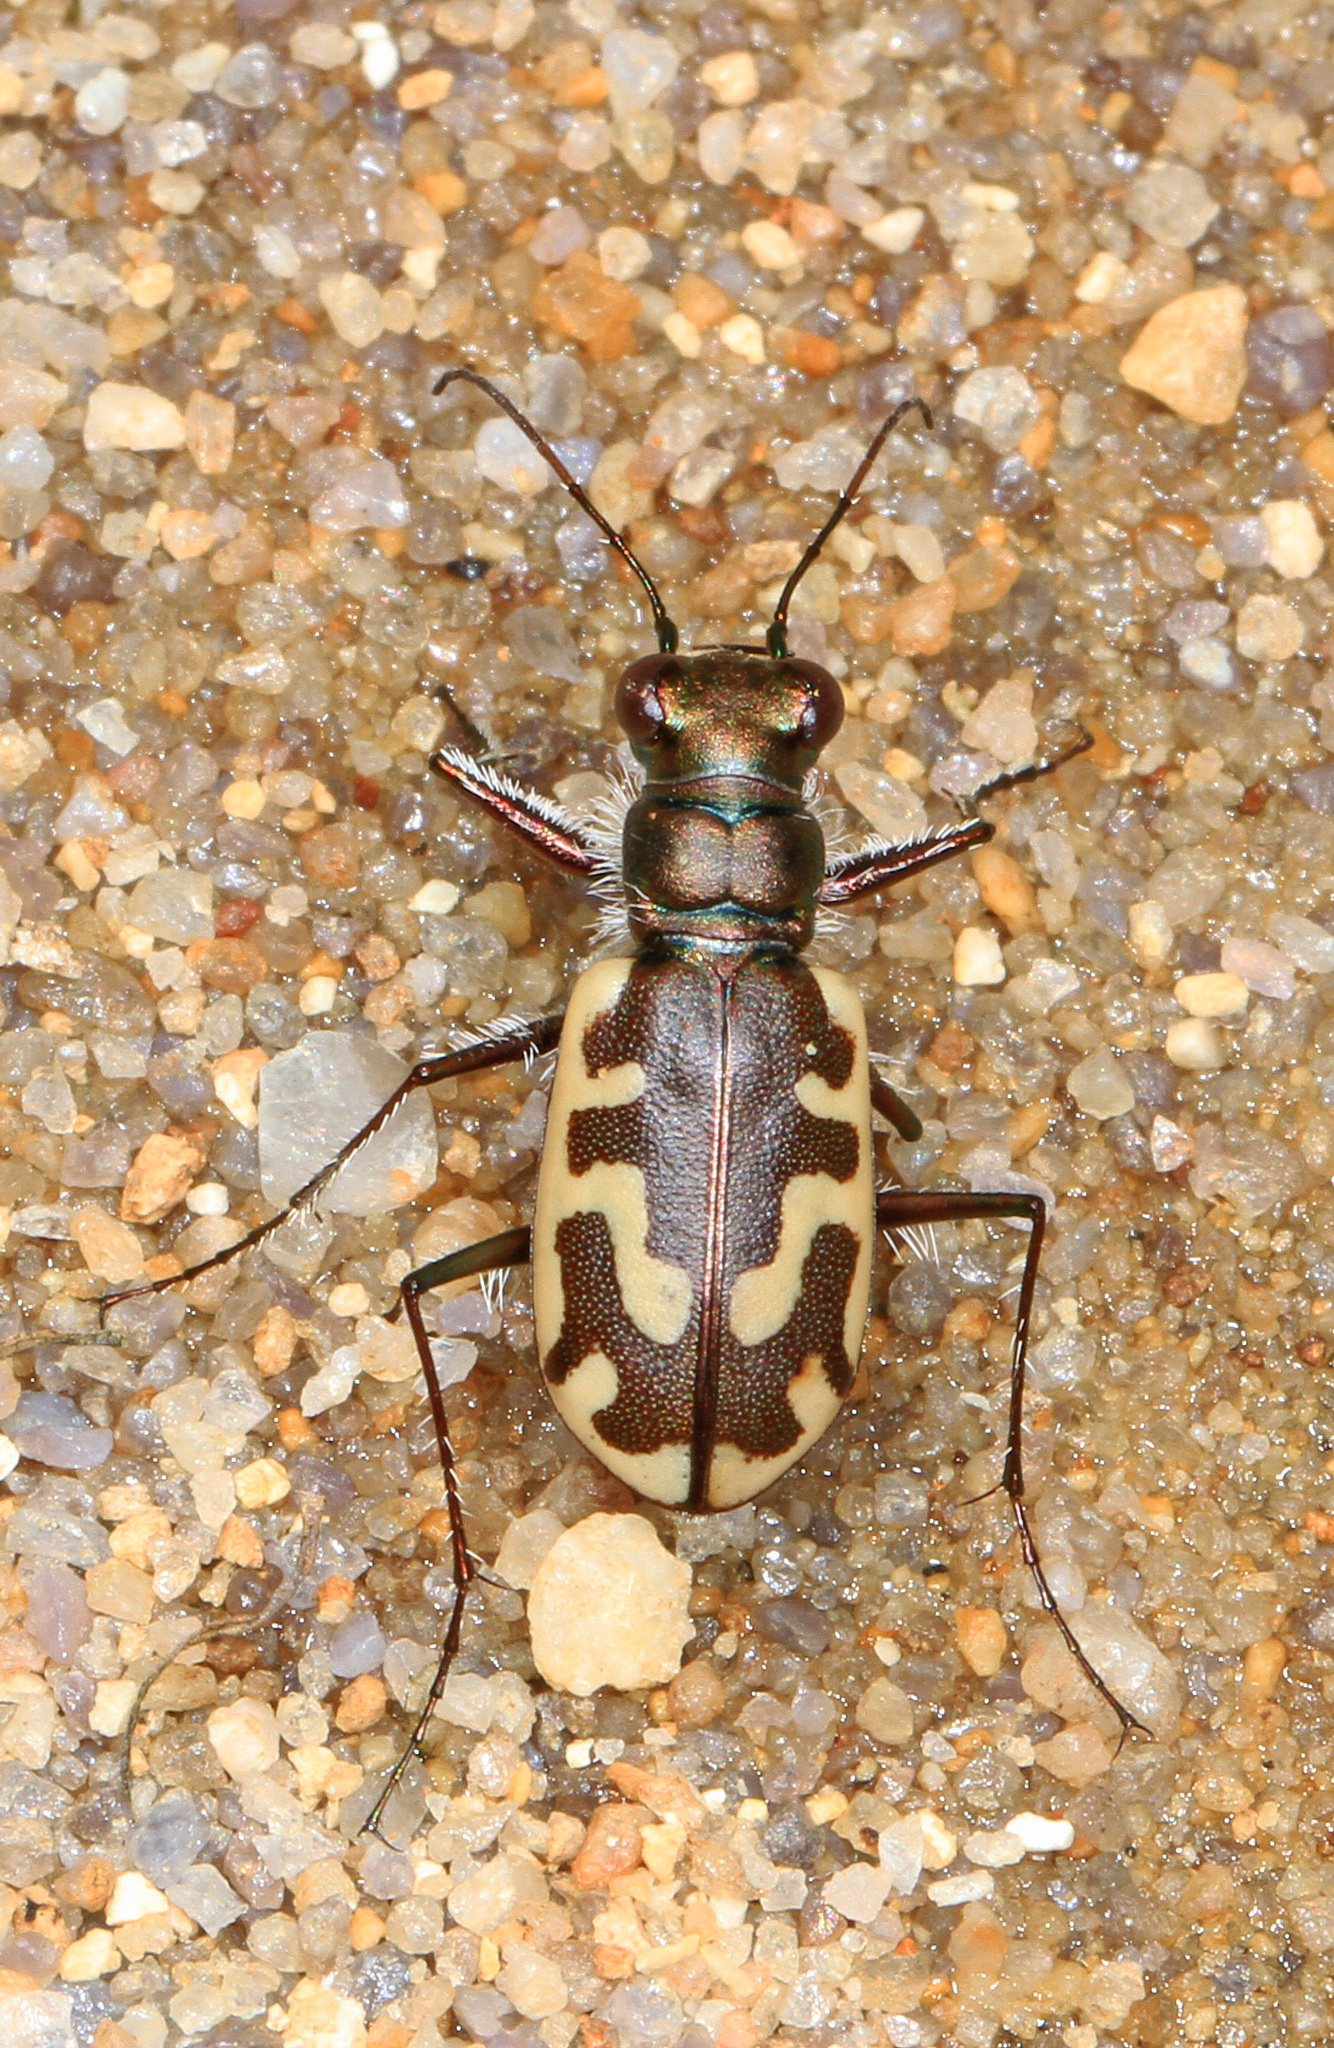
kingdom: Animalia
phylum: Arthropoda
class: Insecta
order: Coleoptera
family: Carabidae
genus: Cicindela
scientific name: Cicindela hirticollis
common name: Hairy-necked tiger beetle
